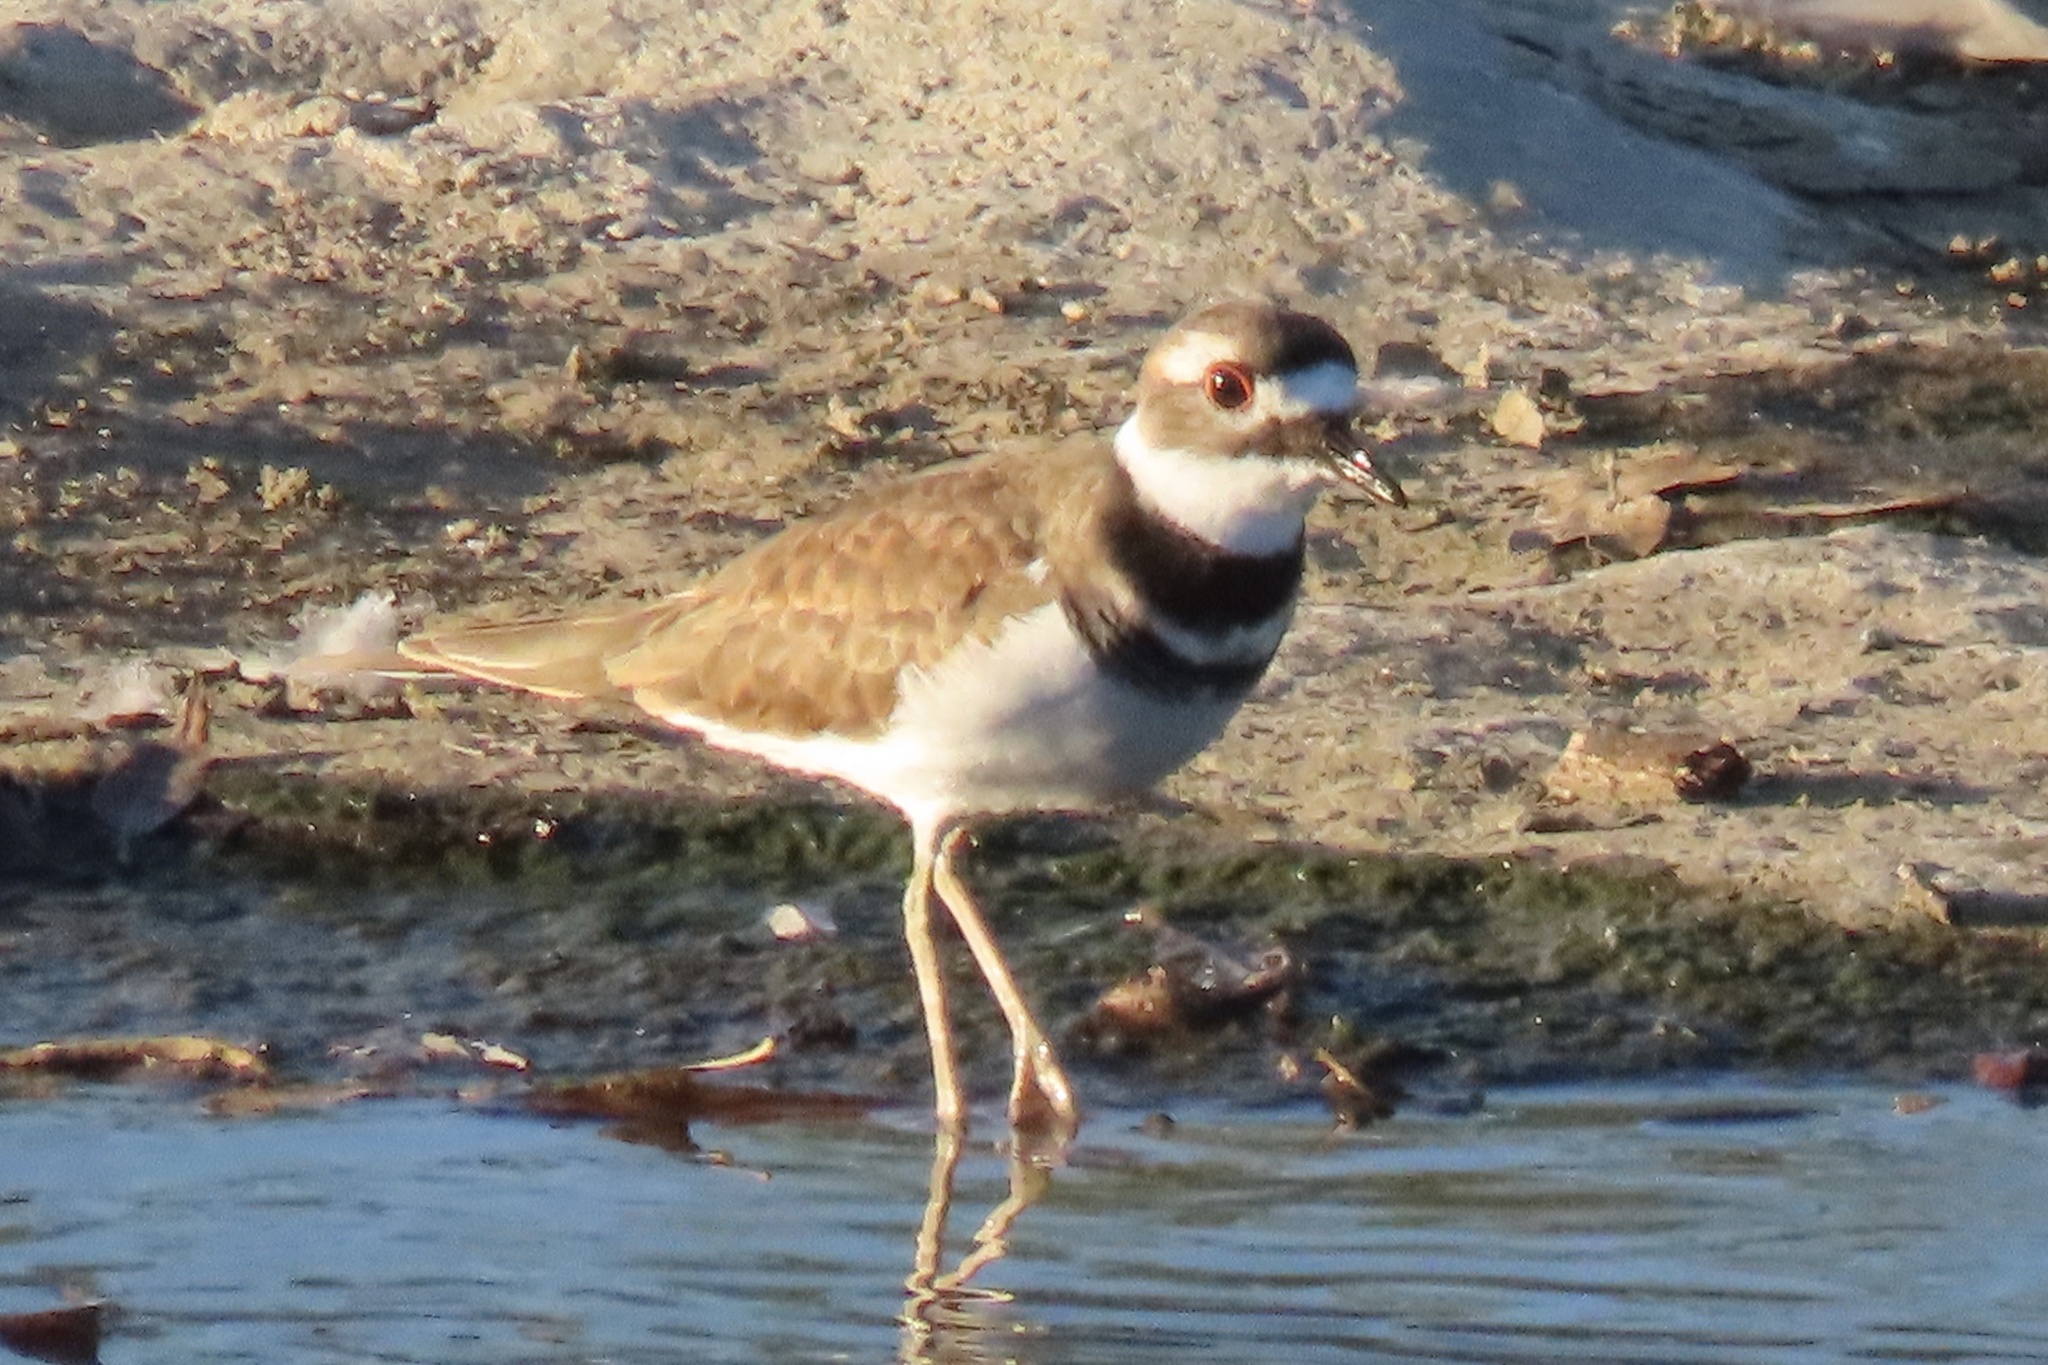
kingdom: Animalia
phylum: Chordata
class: Aves
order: Charadriiformes
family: Charadriidae
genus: Charadrius
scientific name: Charadrius vociferus
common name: Killdeer
